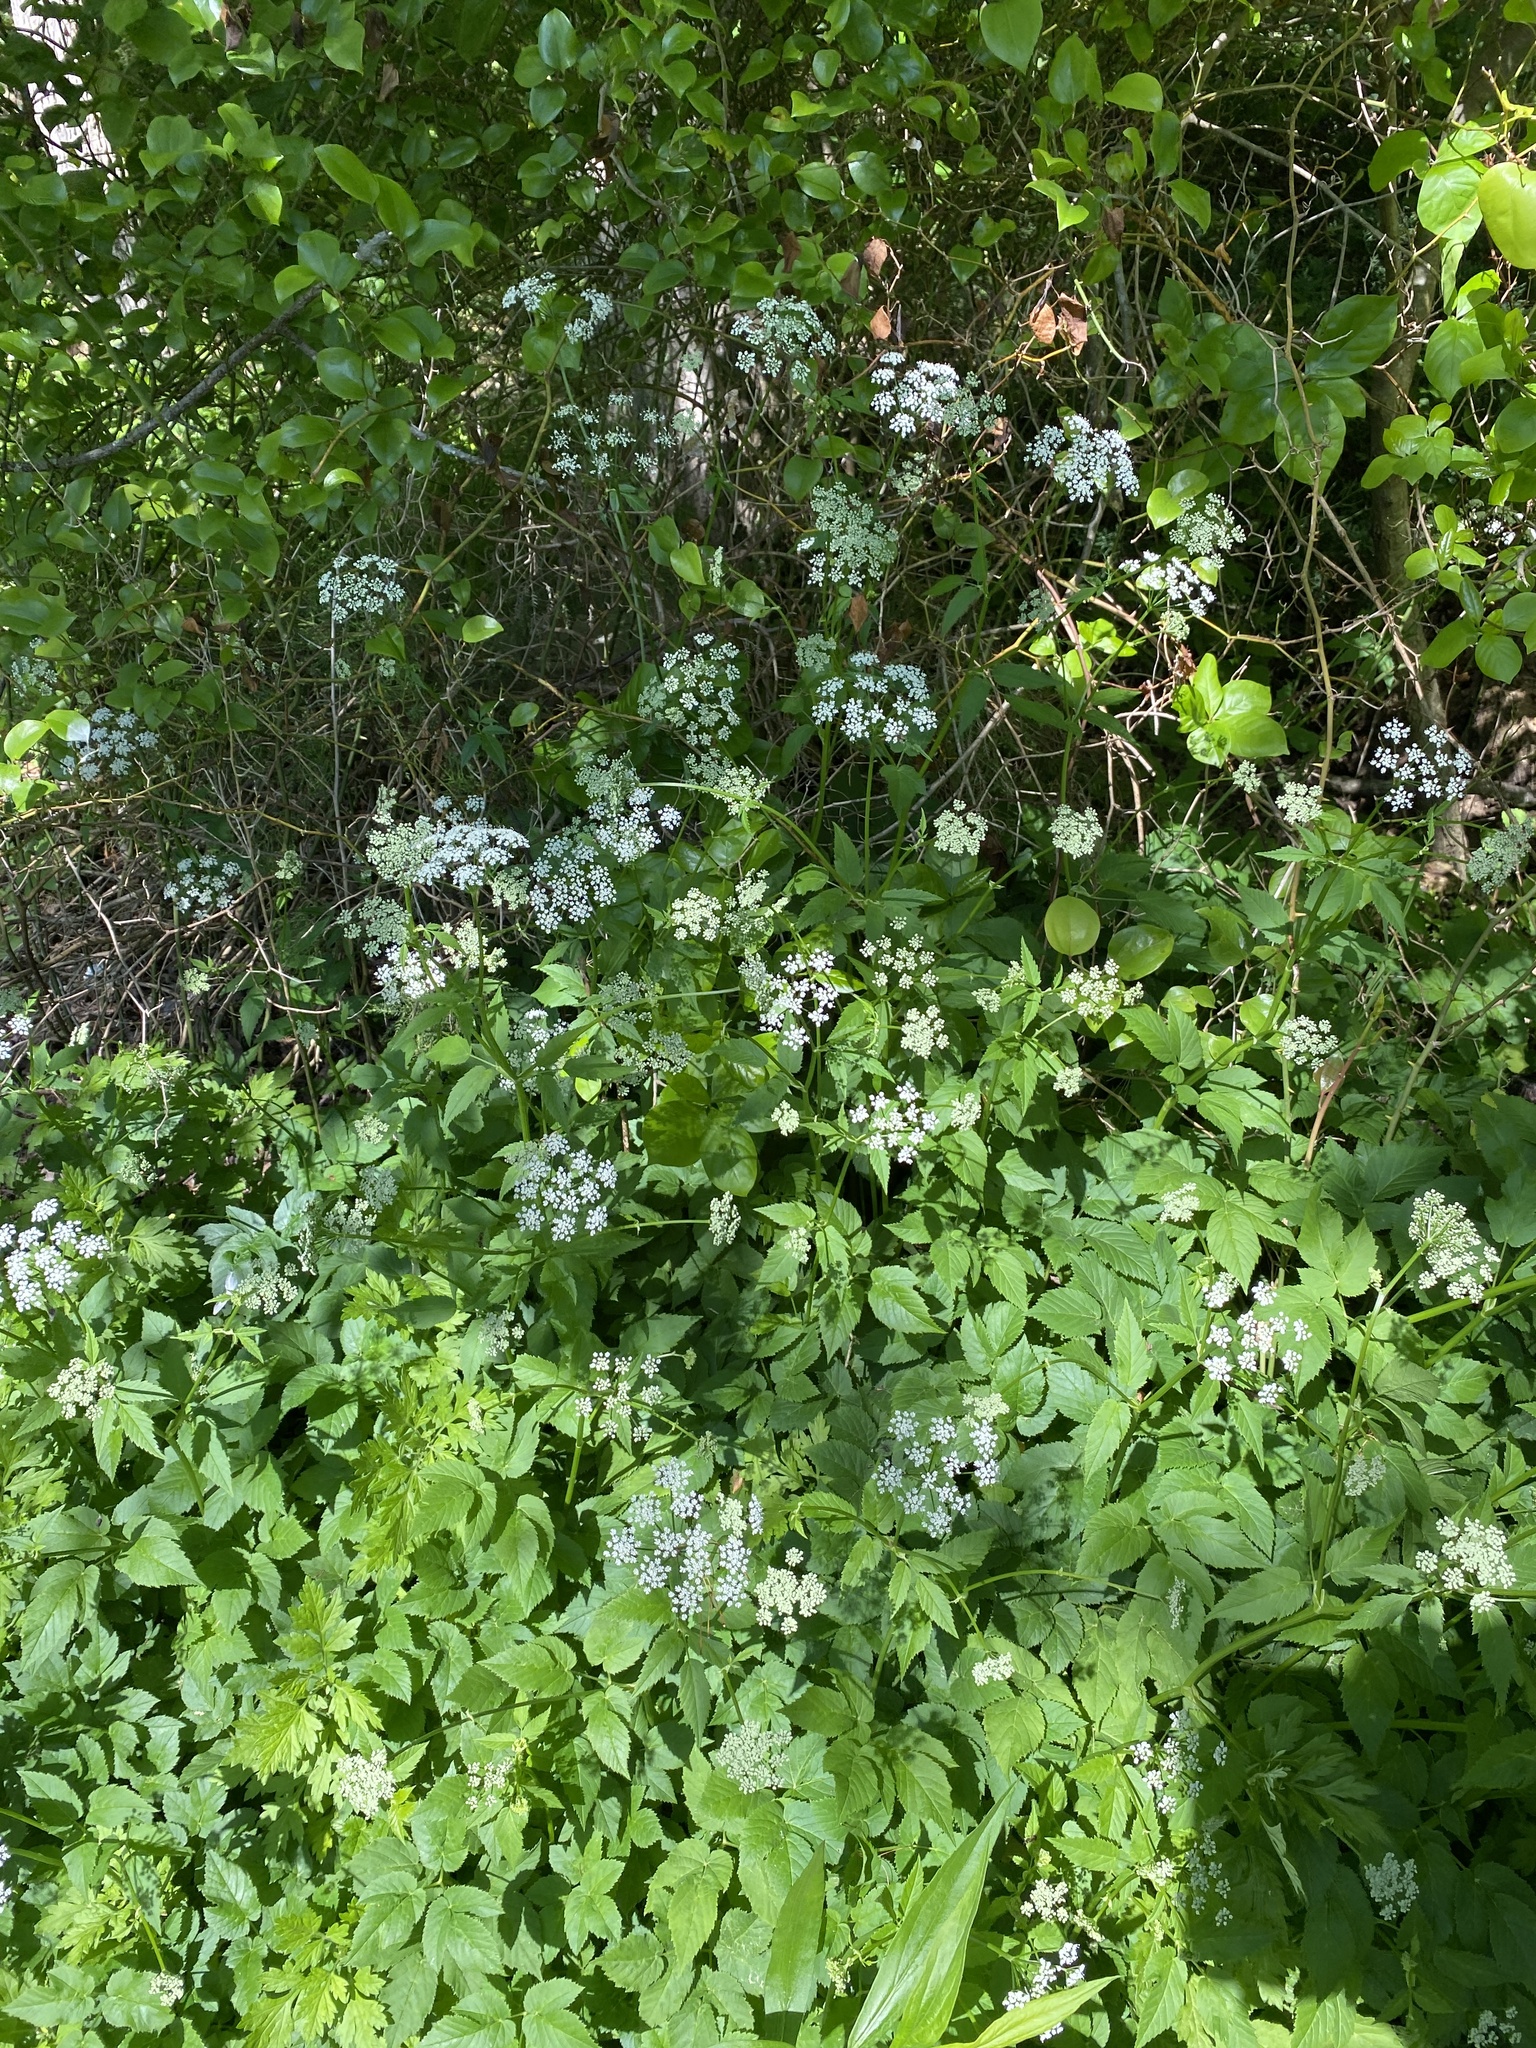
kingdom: Plantae
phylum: Tracheophyta
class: Magnoliopsida
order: Apiales
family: Apiaceae
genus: Aegopodium
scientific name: Aegopodium podagraria
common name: Ground-elder
